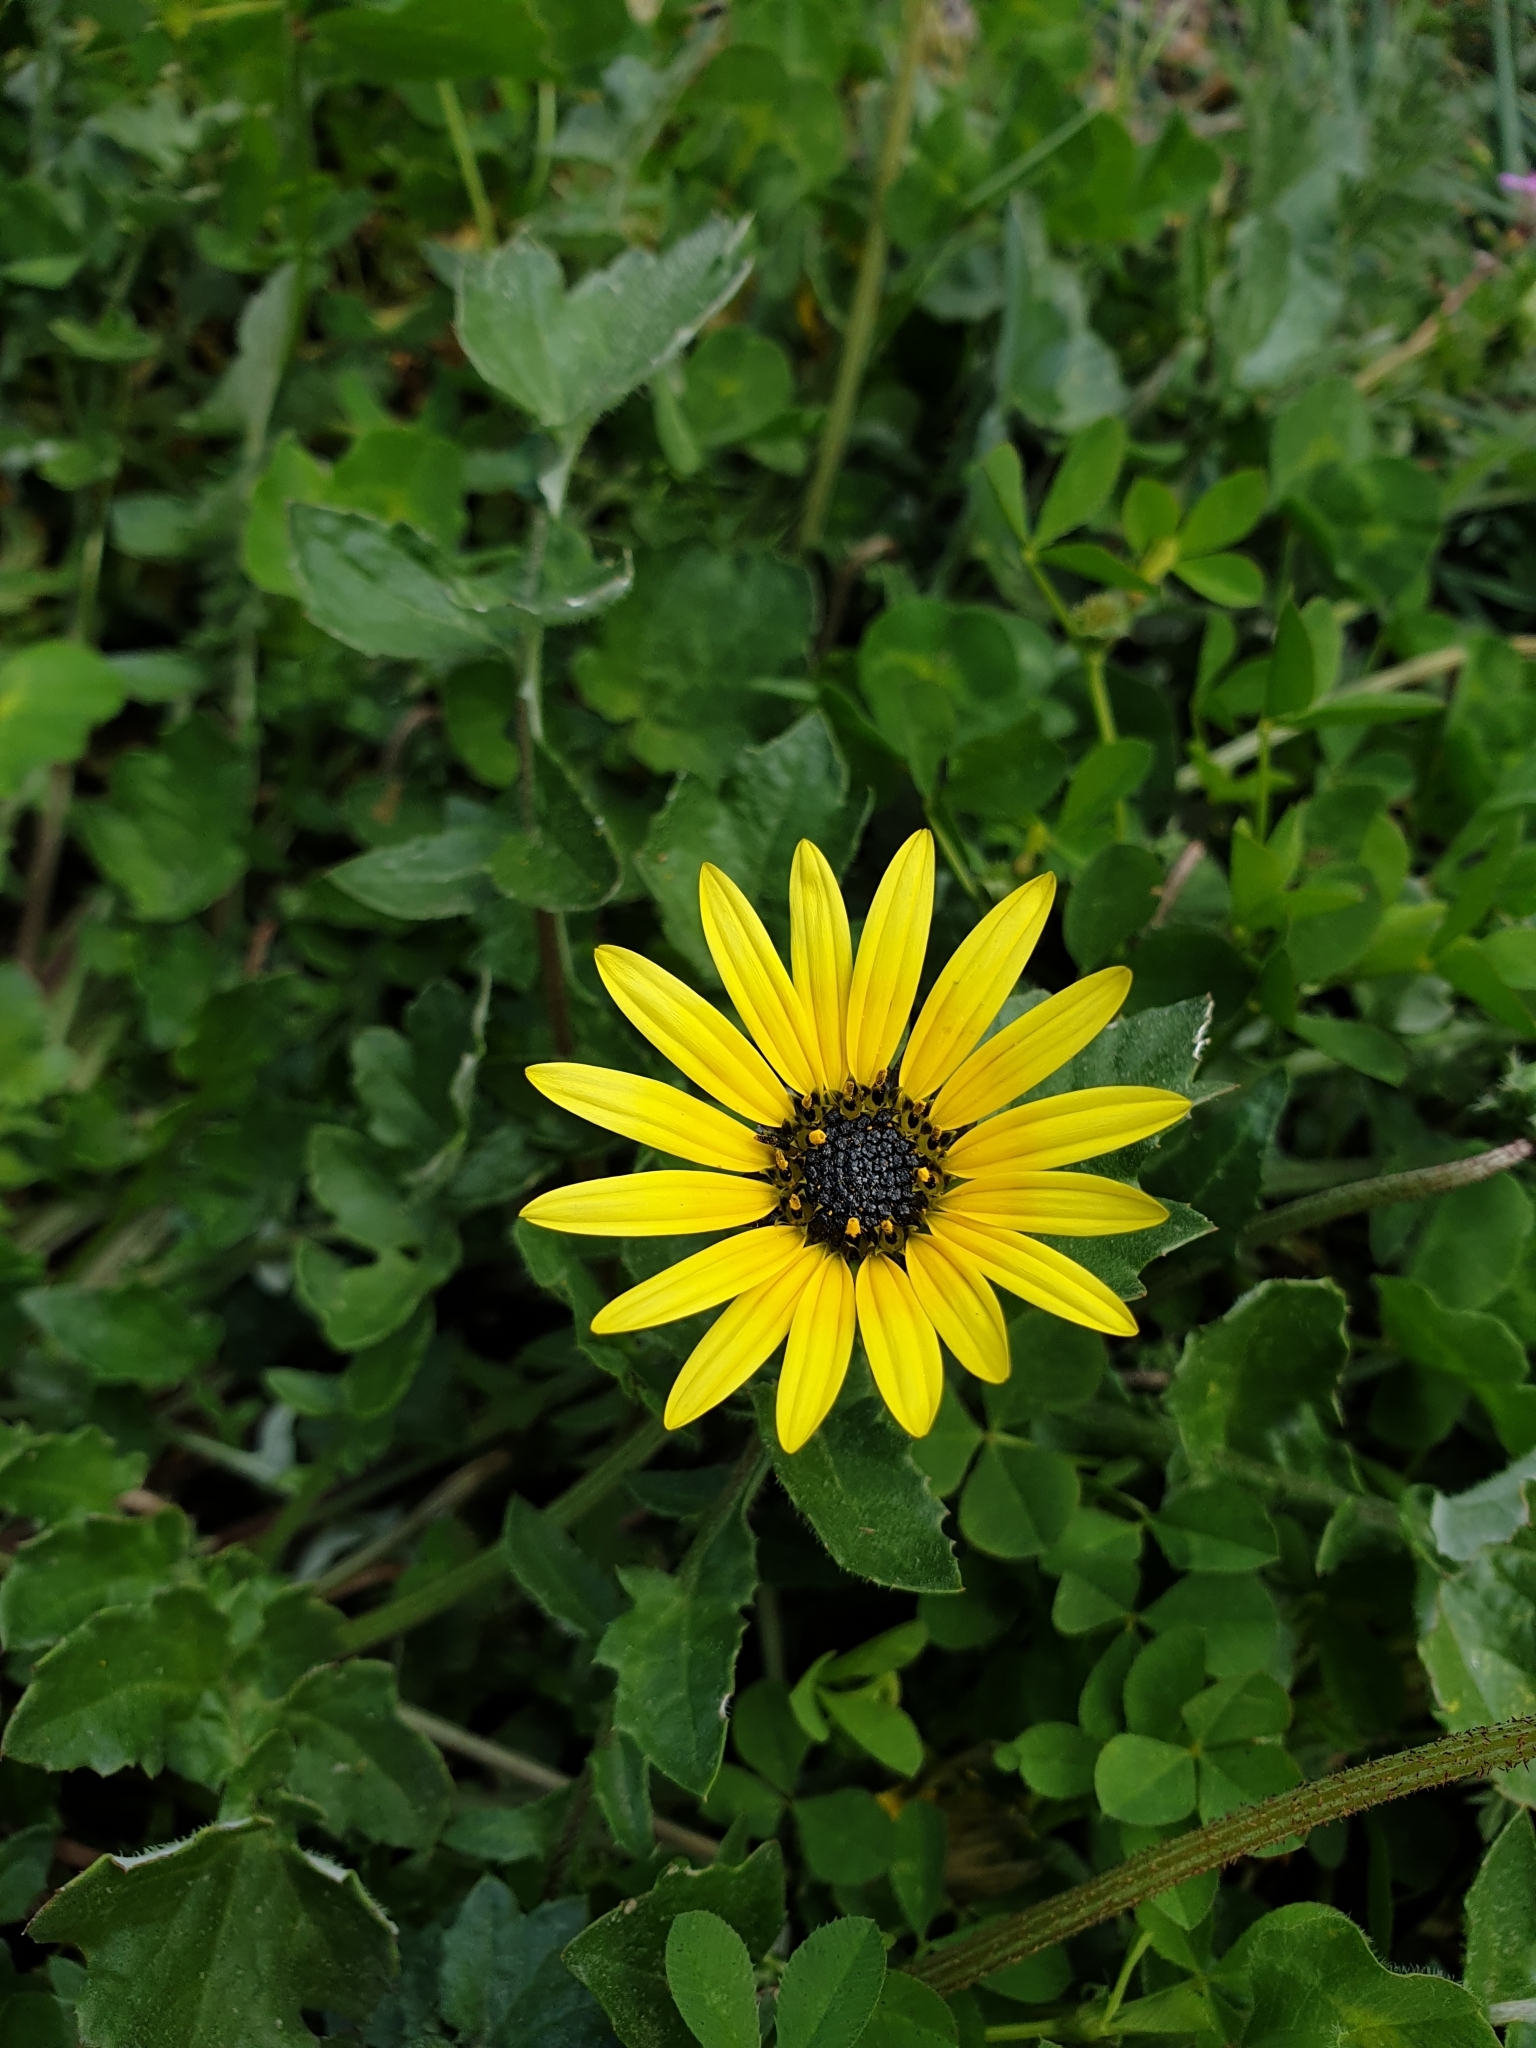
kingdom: Plantae
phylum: Tracheophyta
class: Magnoliopsida
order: Asterales
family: Asteraceae
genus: Arctotheca
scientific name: Arctotheca calendula
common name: Capeweed
